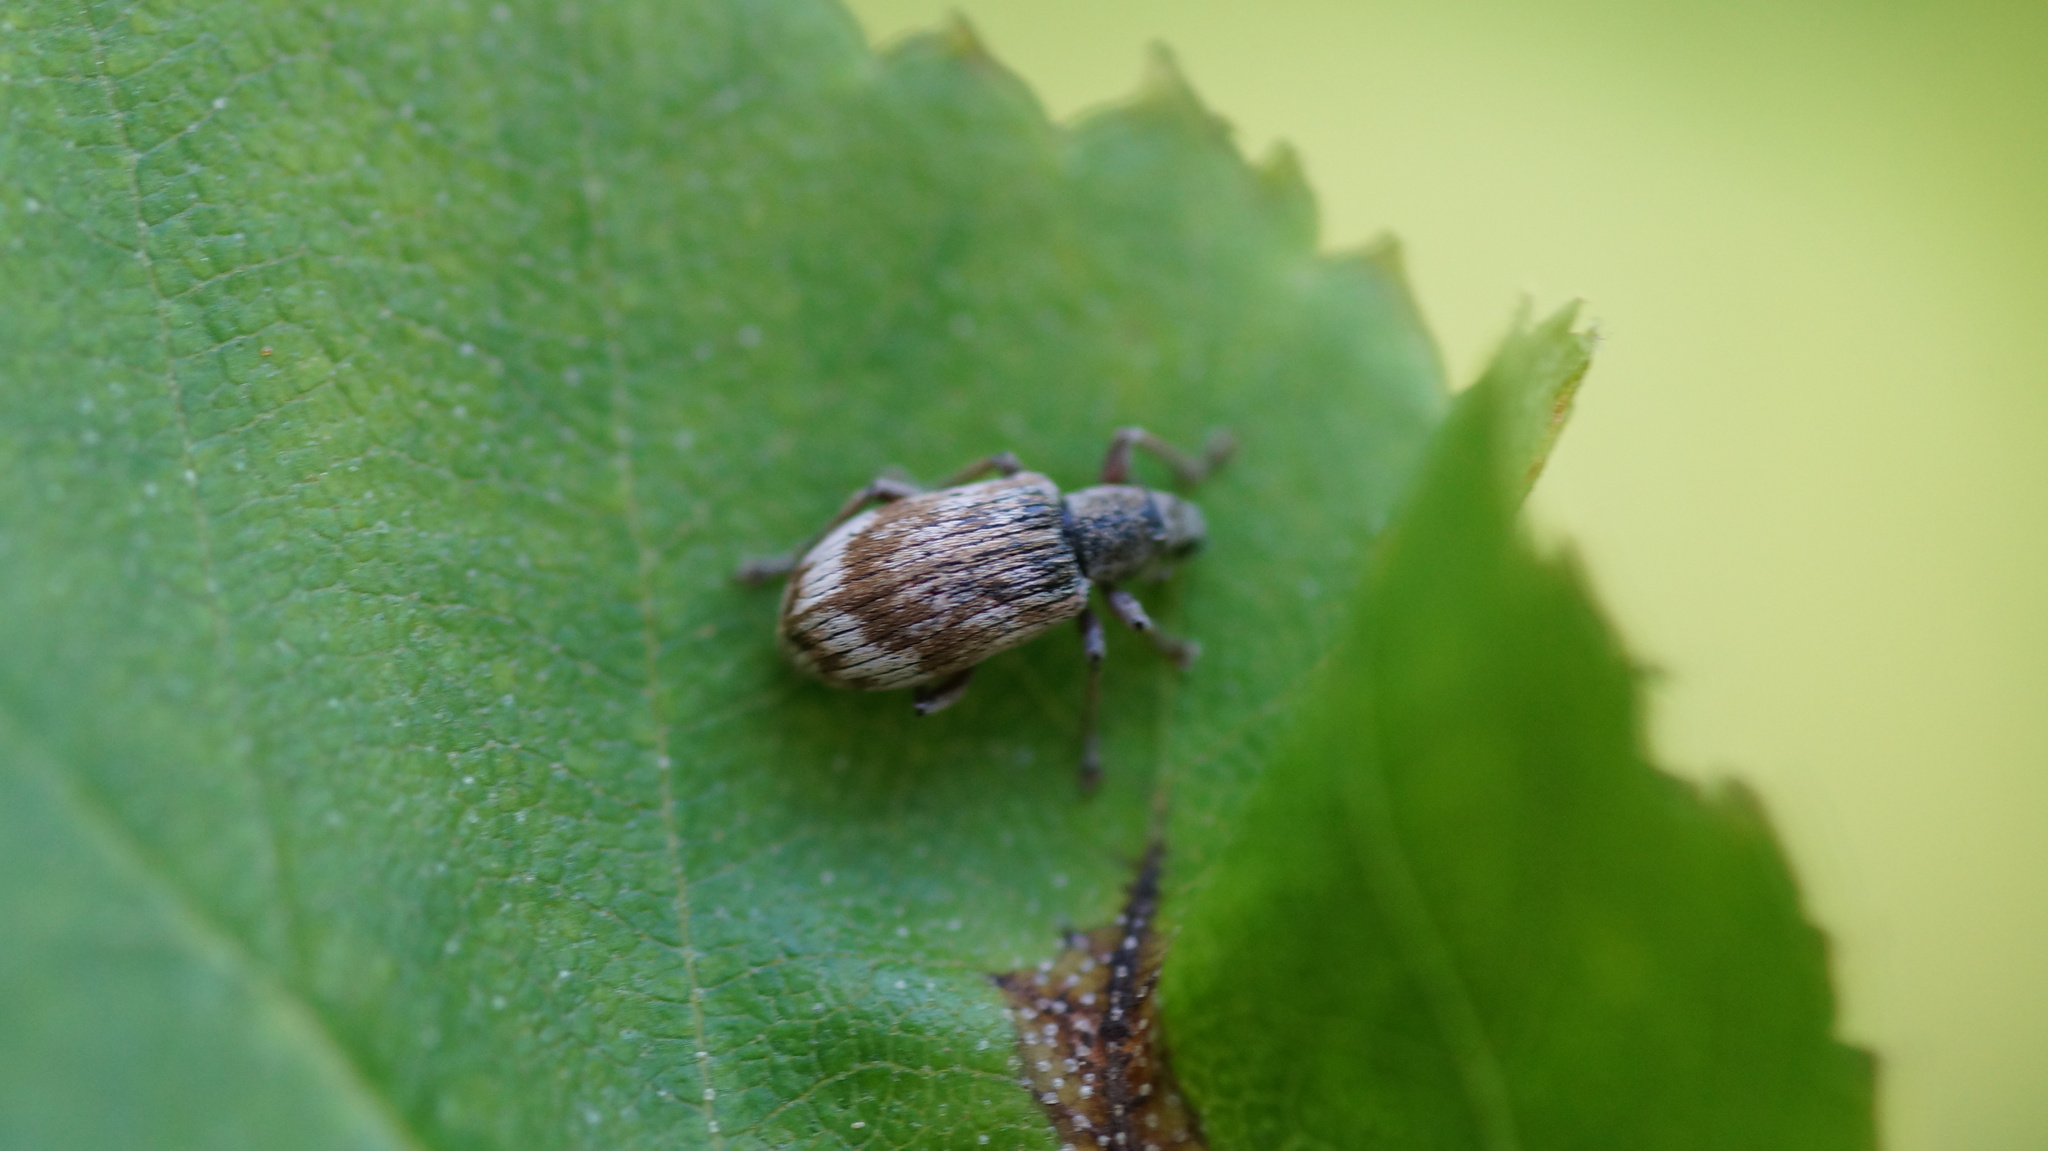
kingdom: Animalia
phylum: Arthropoda
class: Insecta
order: Coleoptera
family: Curculionidae
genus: Polydrusus
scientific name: Polydrusus tereticollis
